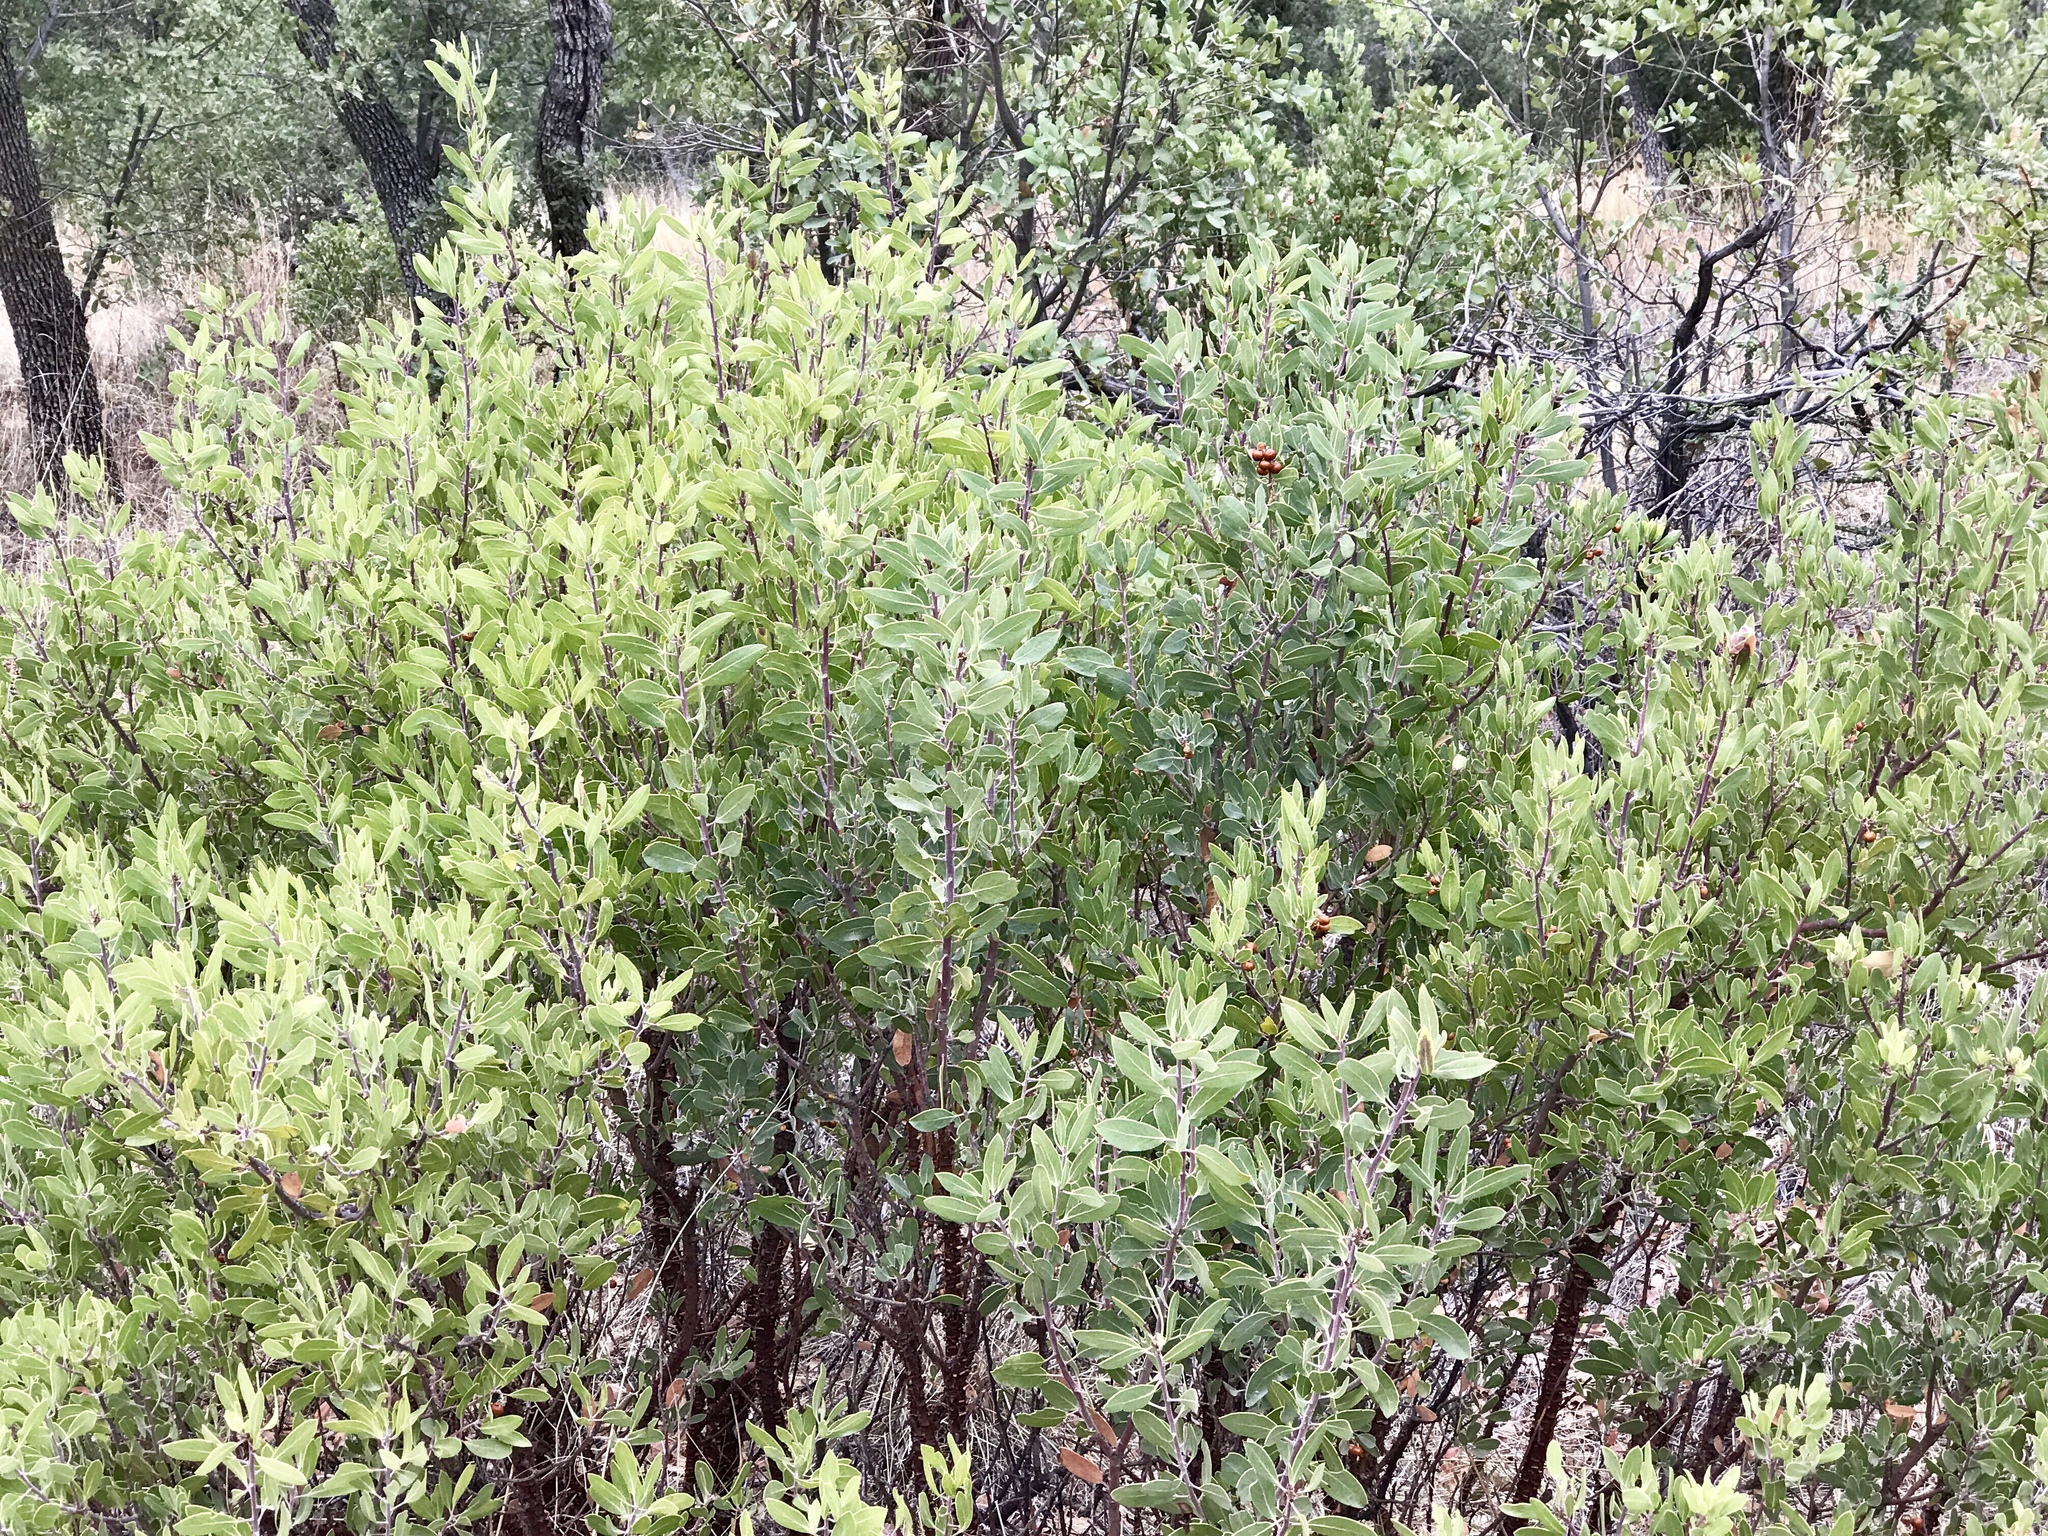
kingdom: Plantae
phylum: Tracheophyta
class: Magnoliopsida
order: Ericales
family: Ericaceae
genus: Arctostaphylos
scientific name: Arctostaphylos pungens
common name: Mexican manzanita
